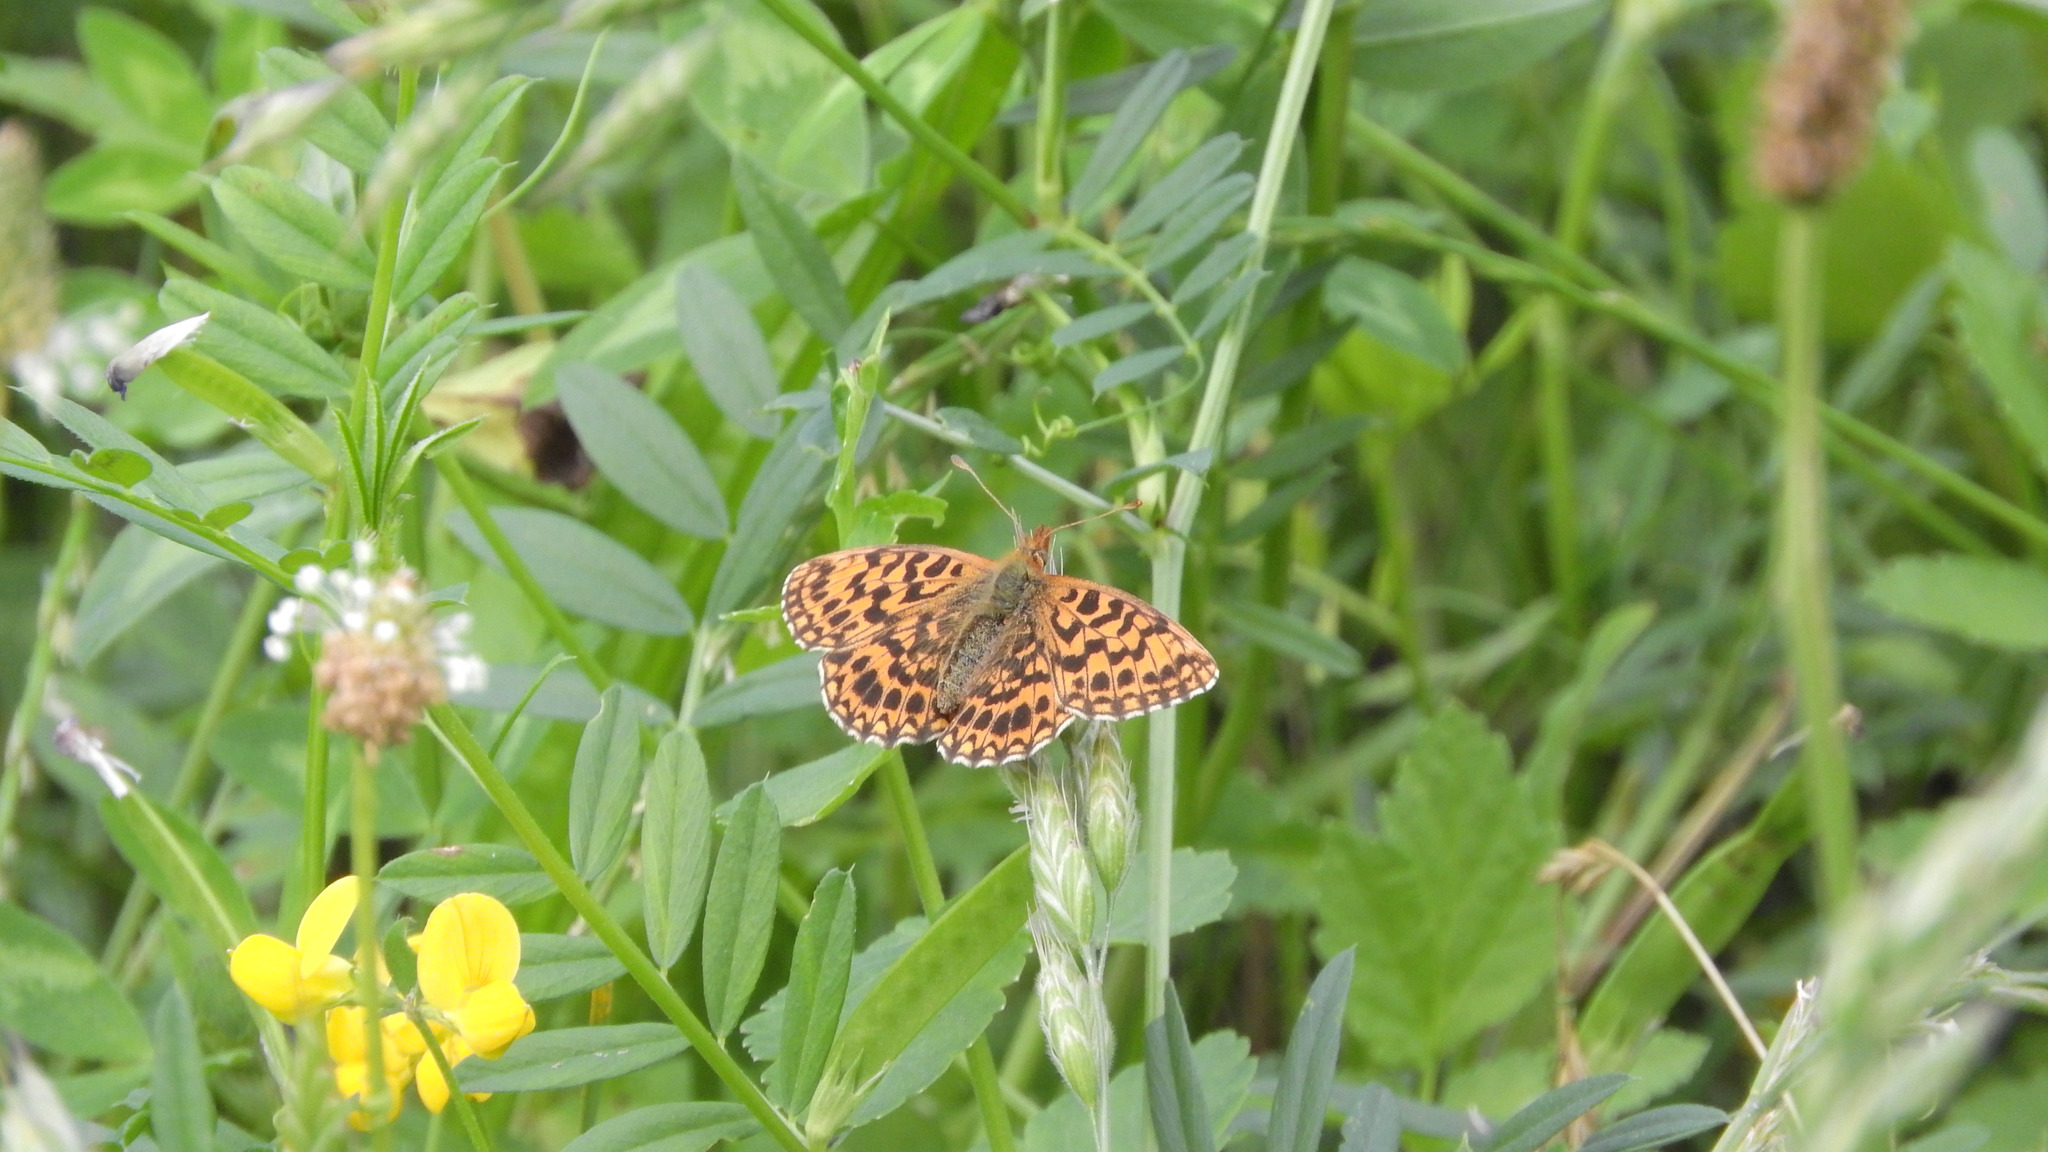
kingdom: Animalia
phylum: Arthropoda
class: Insecta
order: Lepidoptera
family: Nymphalidae
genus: Boloria
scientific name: Boloria dia
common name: Weaver's fritillary
